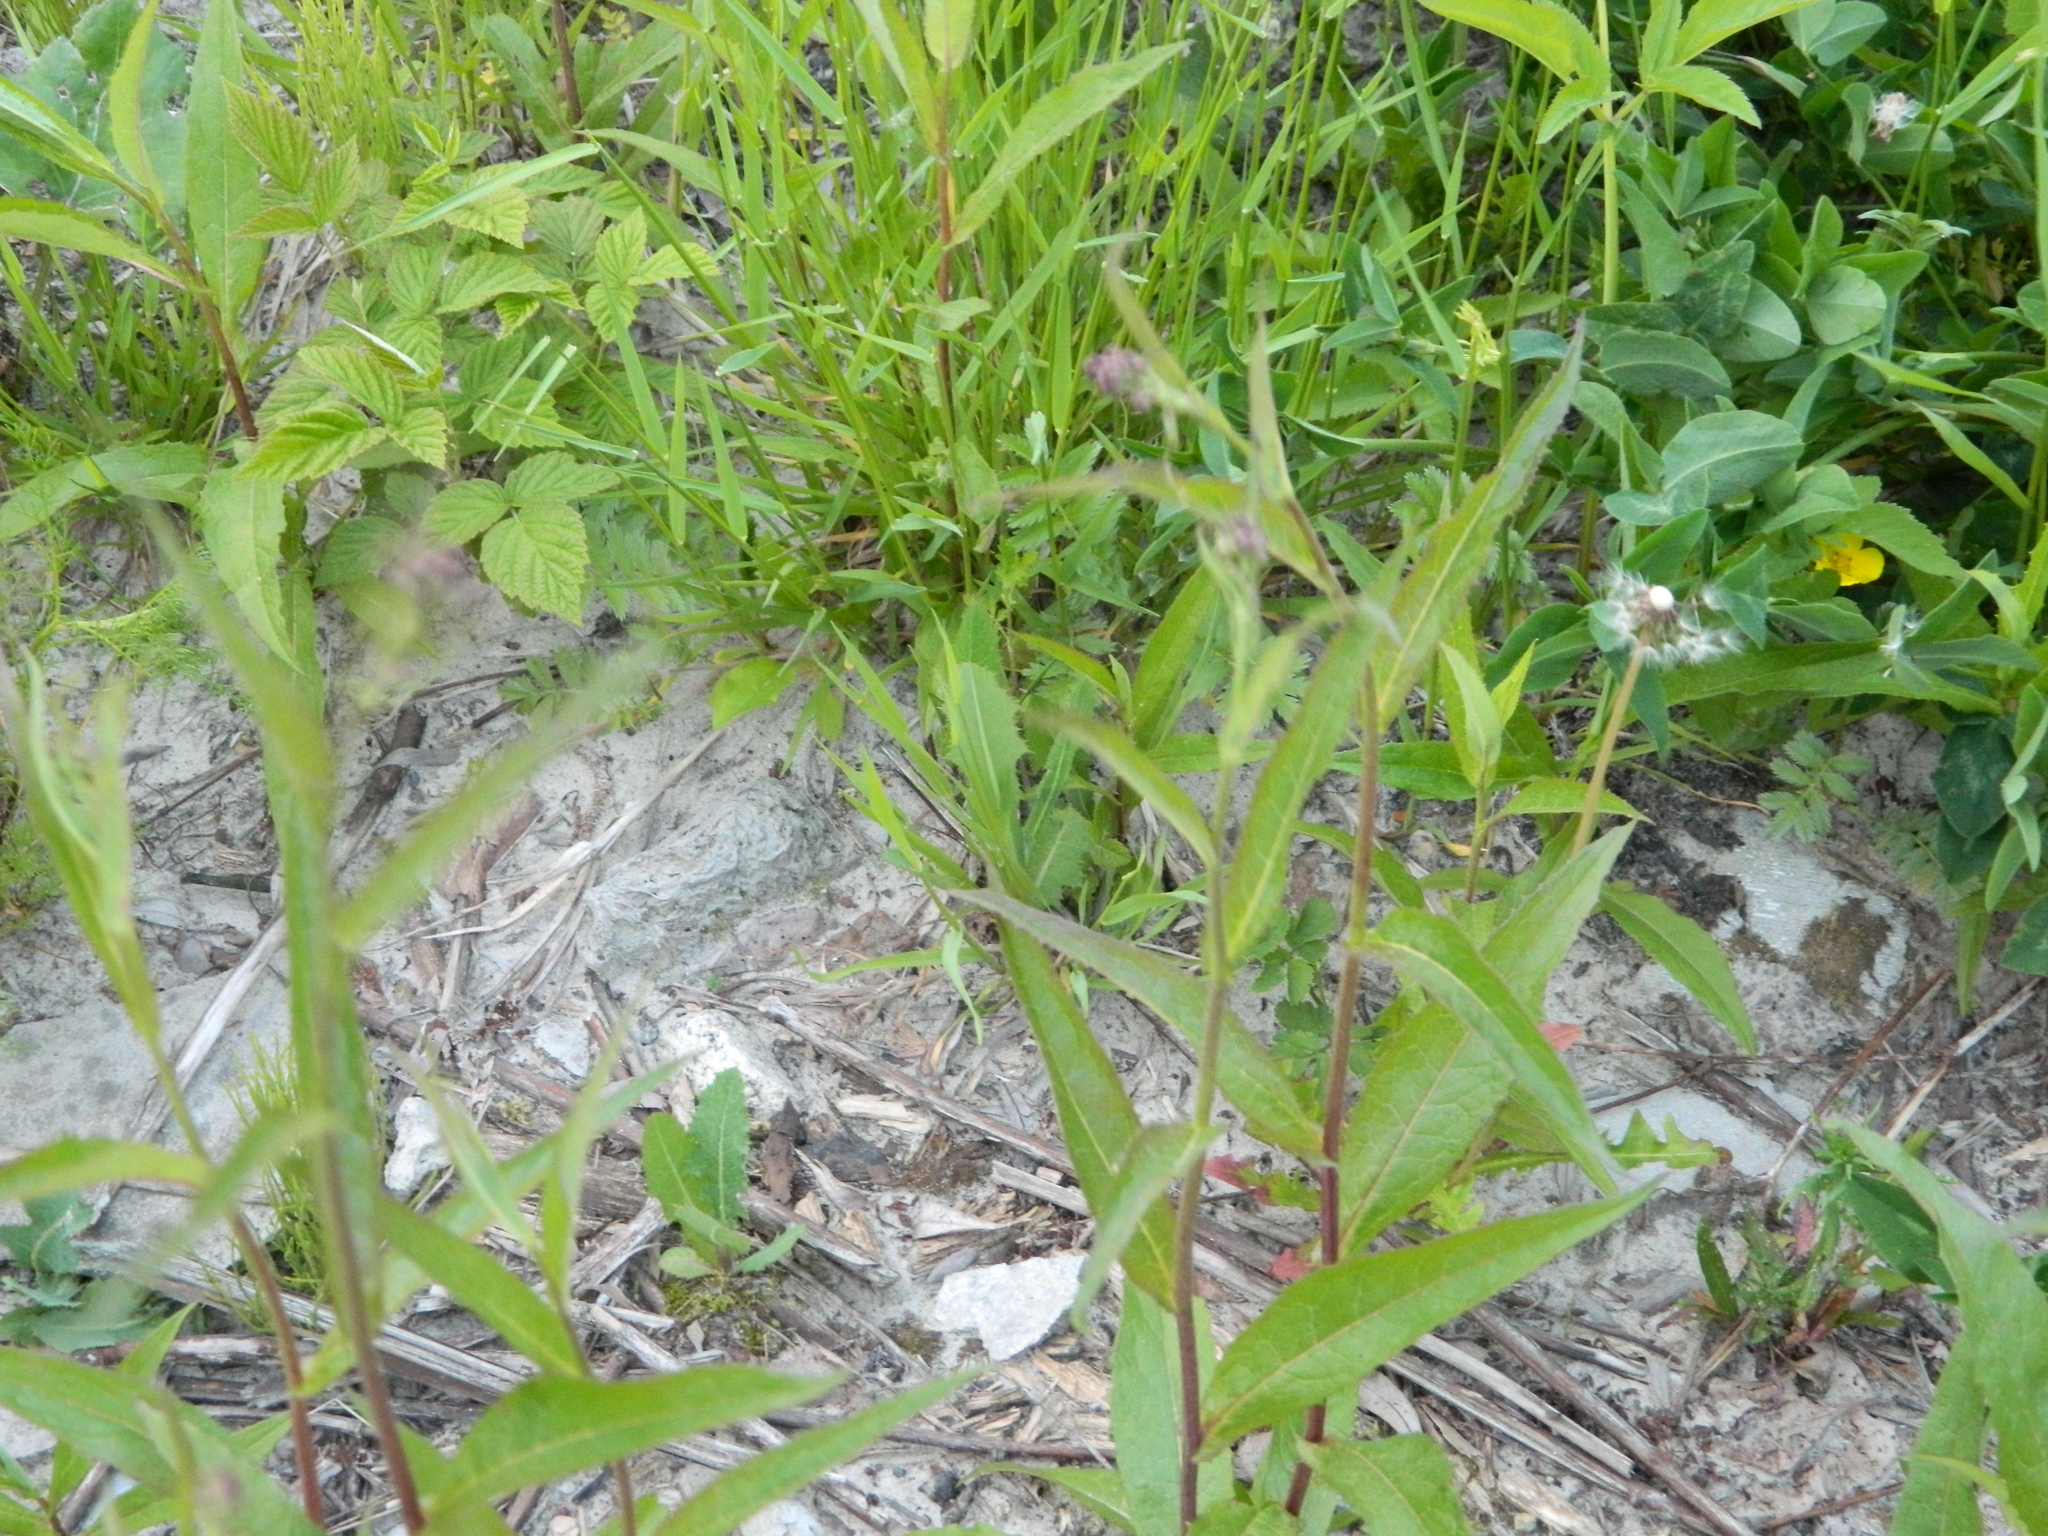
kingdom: Plantae
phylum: Tracheophyta
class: Magnoliopsida
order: Asterales
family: Asteraceae
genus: Lactuca
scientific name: Lactuca sibirica
